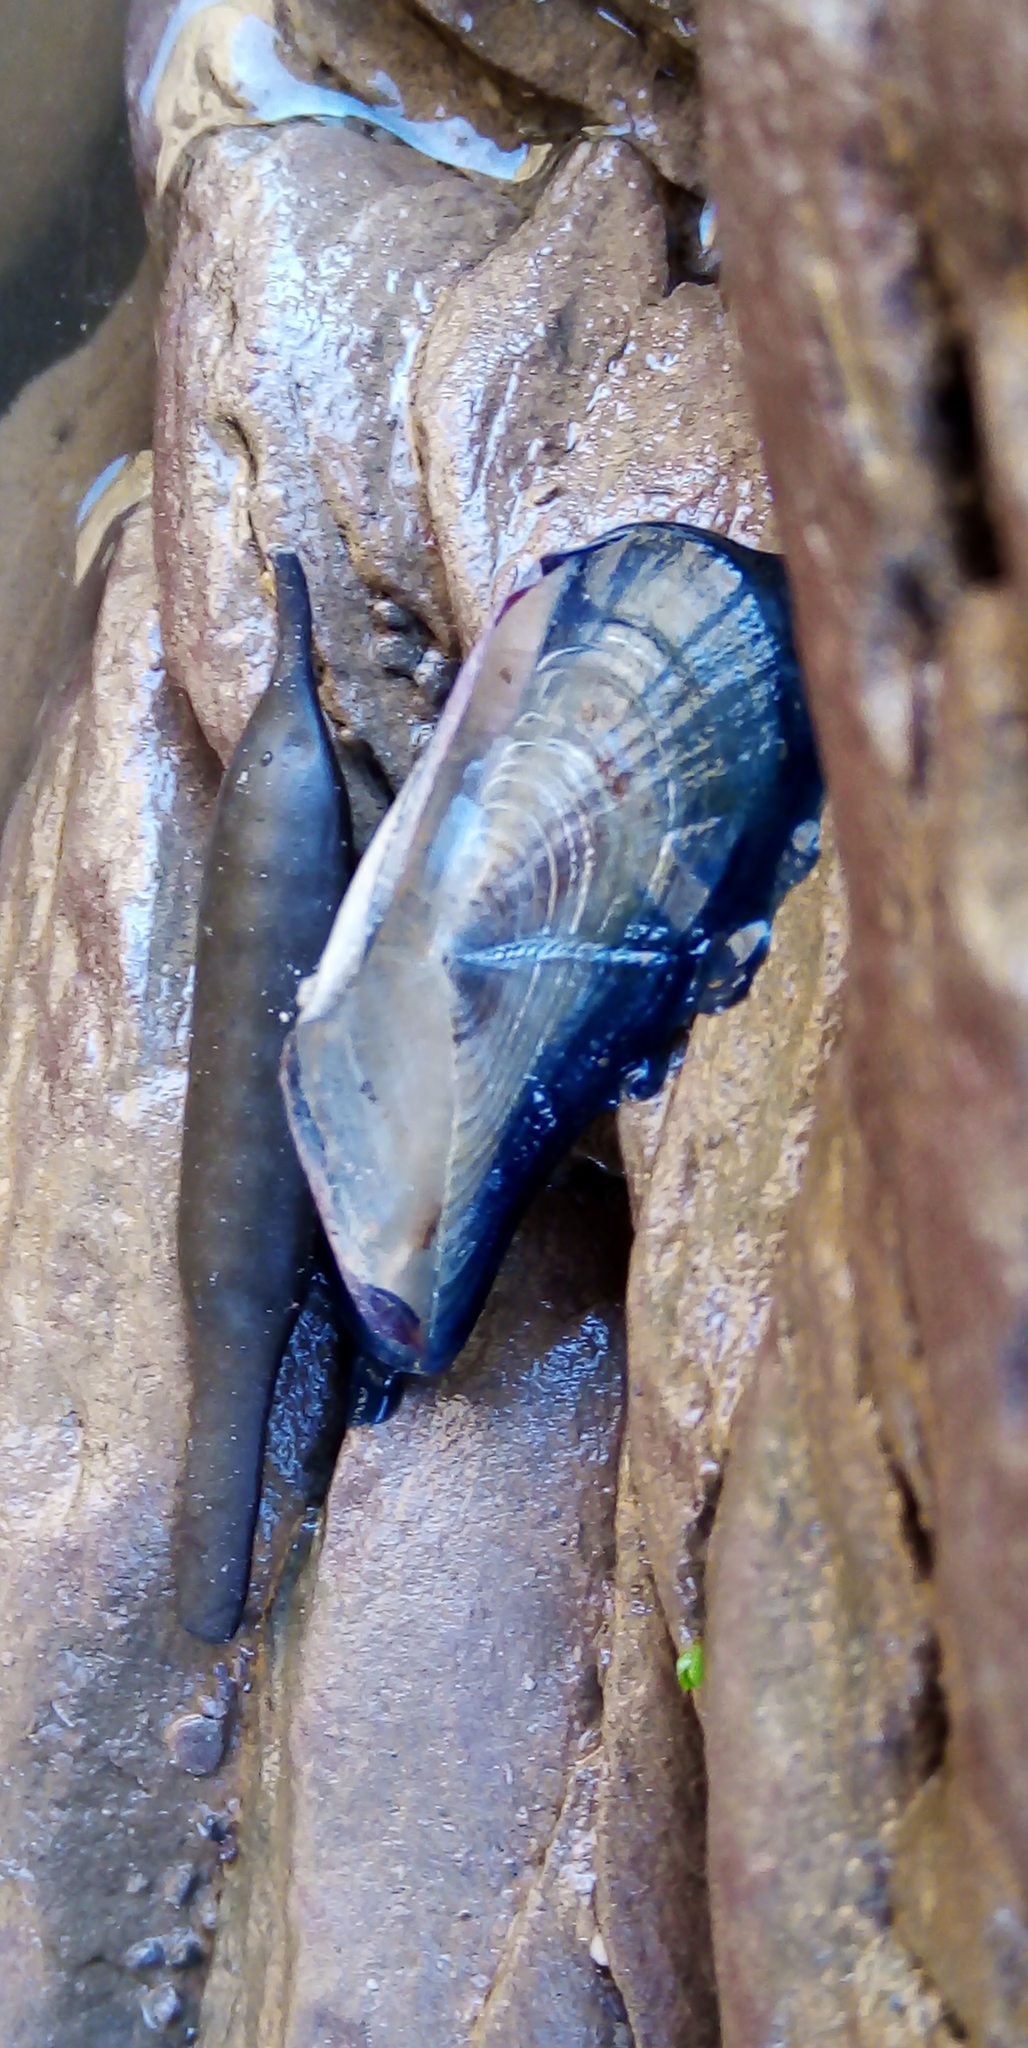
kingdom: Animalia
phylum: Cnidaria
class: Hydrozoa
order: Anthoathecata
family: Porpitidae
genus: Velella
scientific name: Velella velella
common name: By-the-wind-sailor
